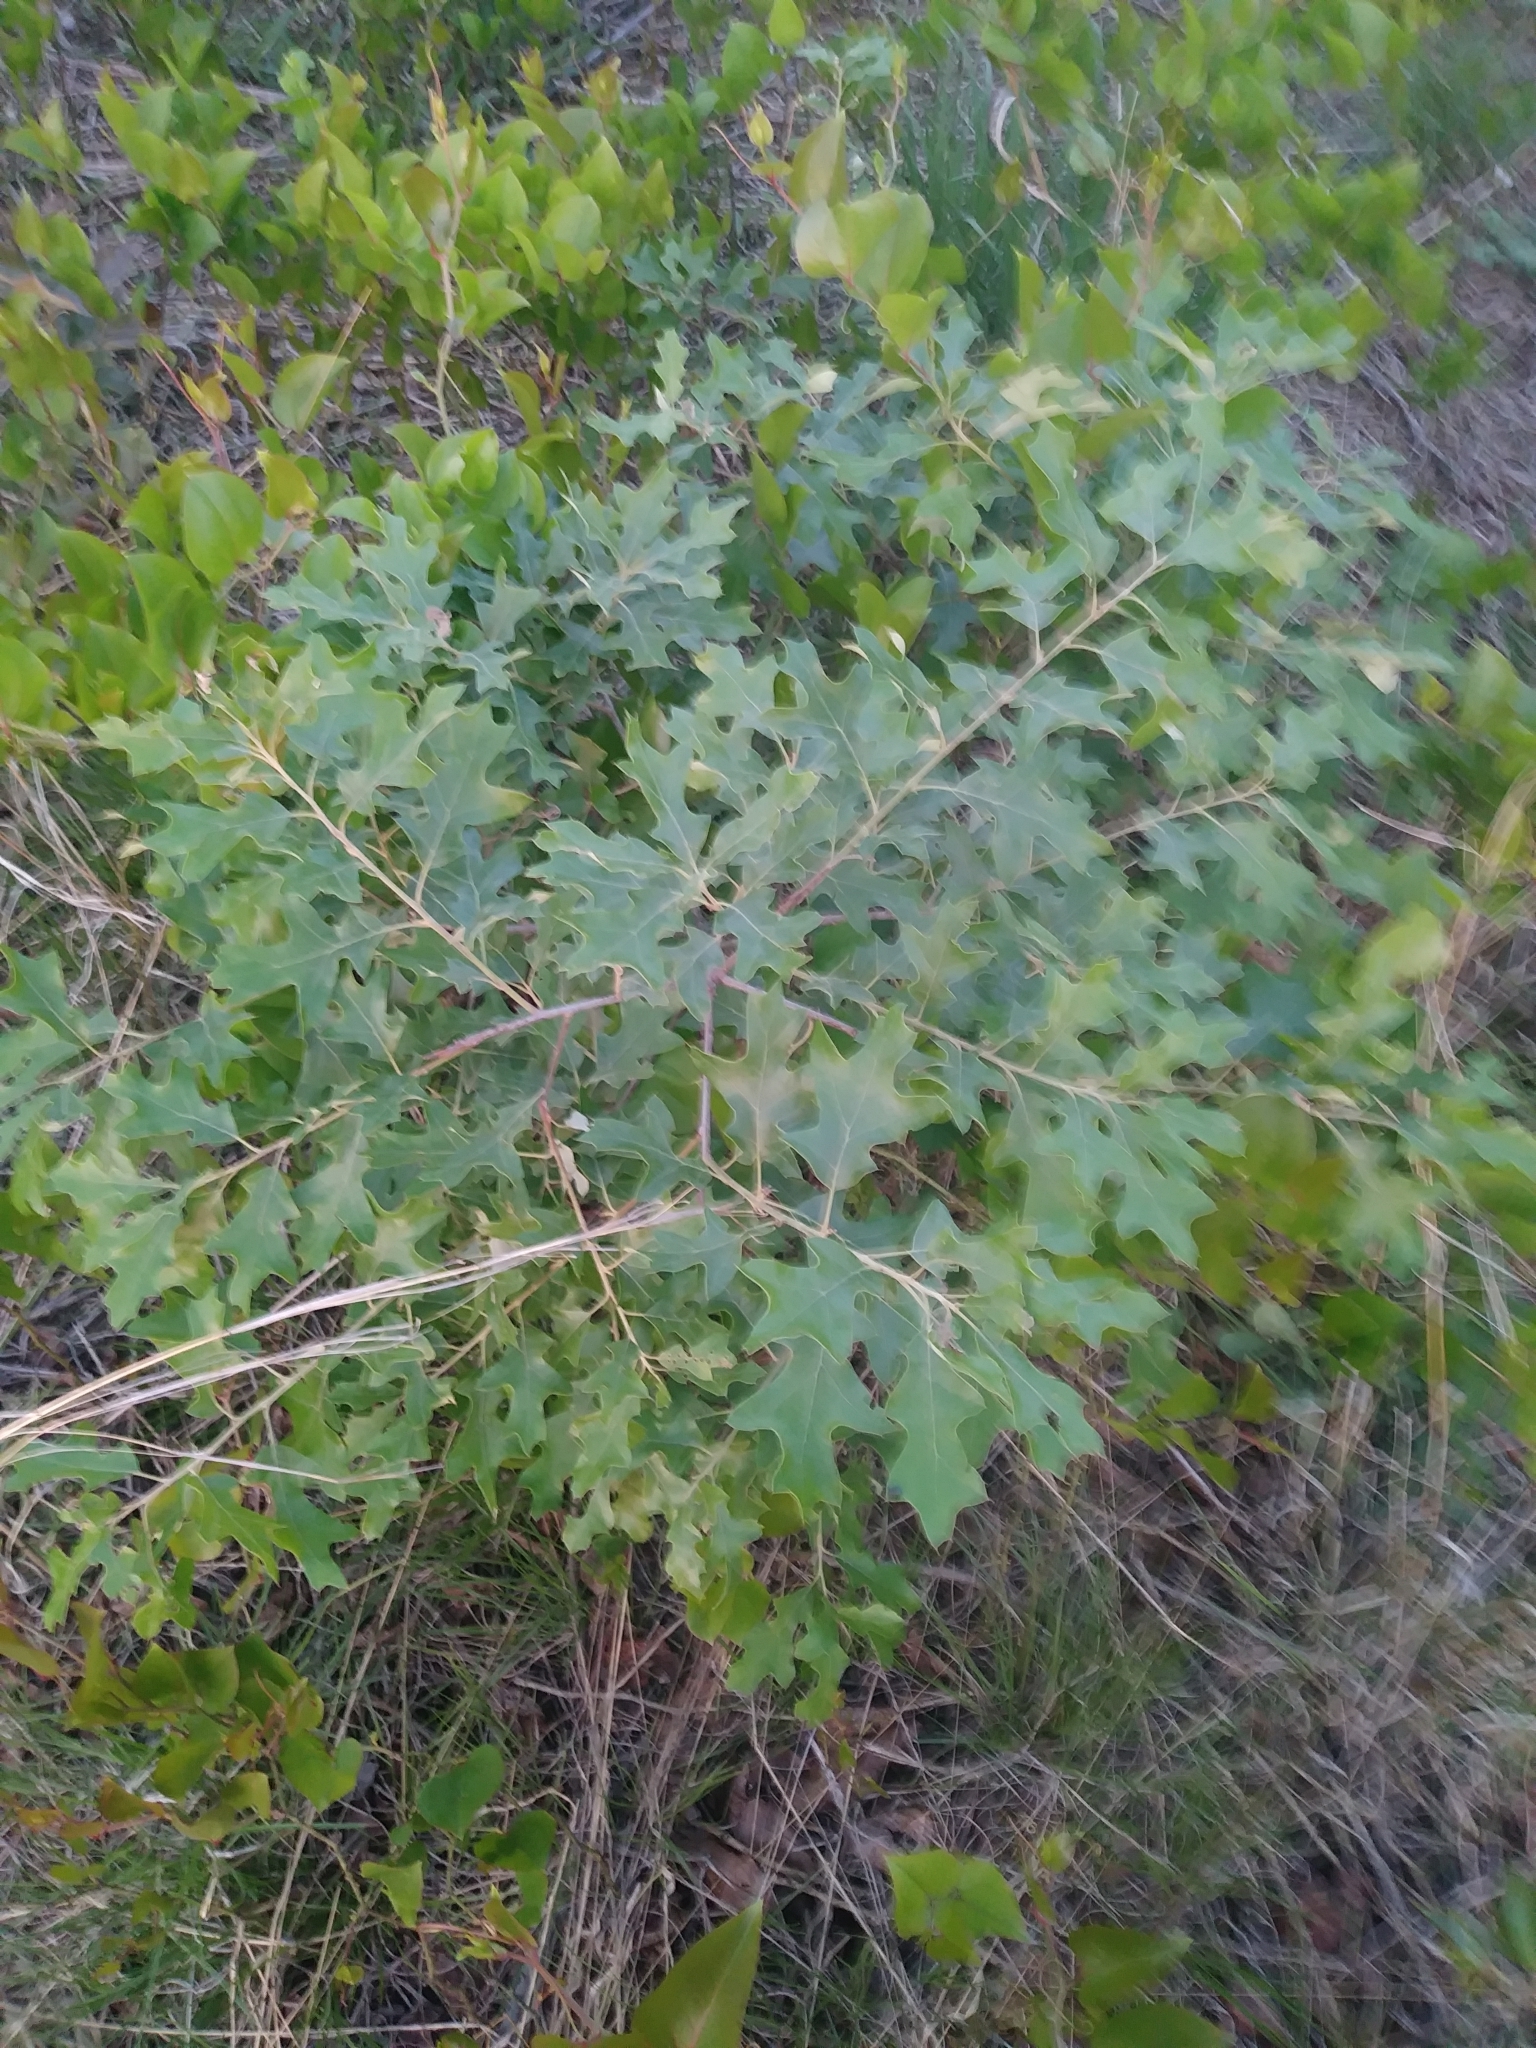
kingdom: Plantae
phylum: Tracheophyta
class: Magnoliopsida
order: Fagales
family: Fagaceae
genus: Quercus
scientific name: Quercus ilicifolia
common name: Bear oak
